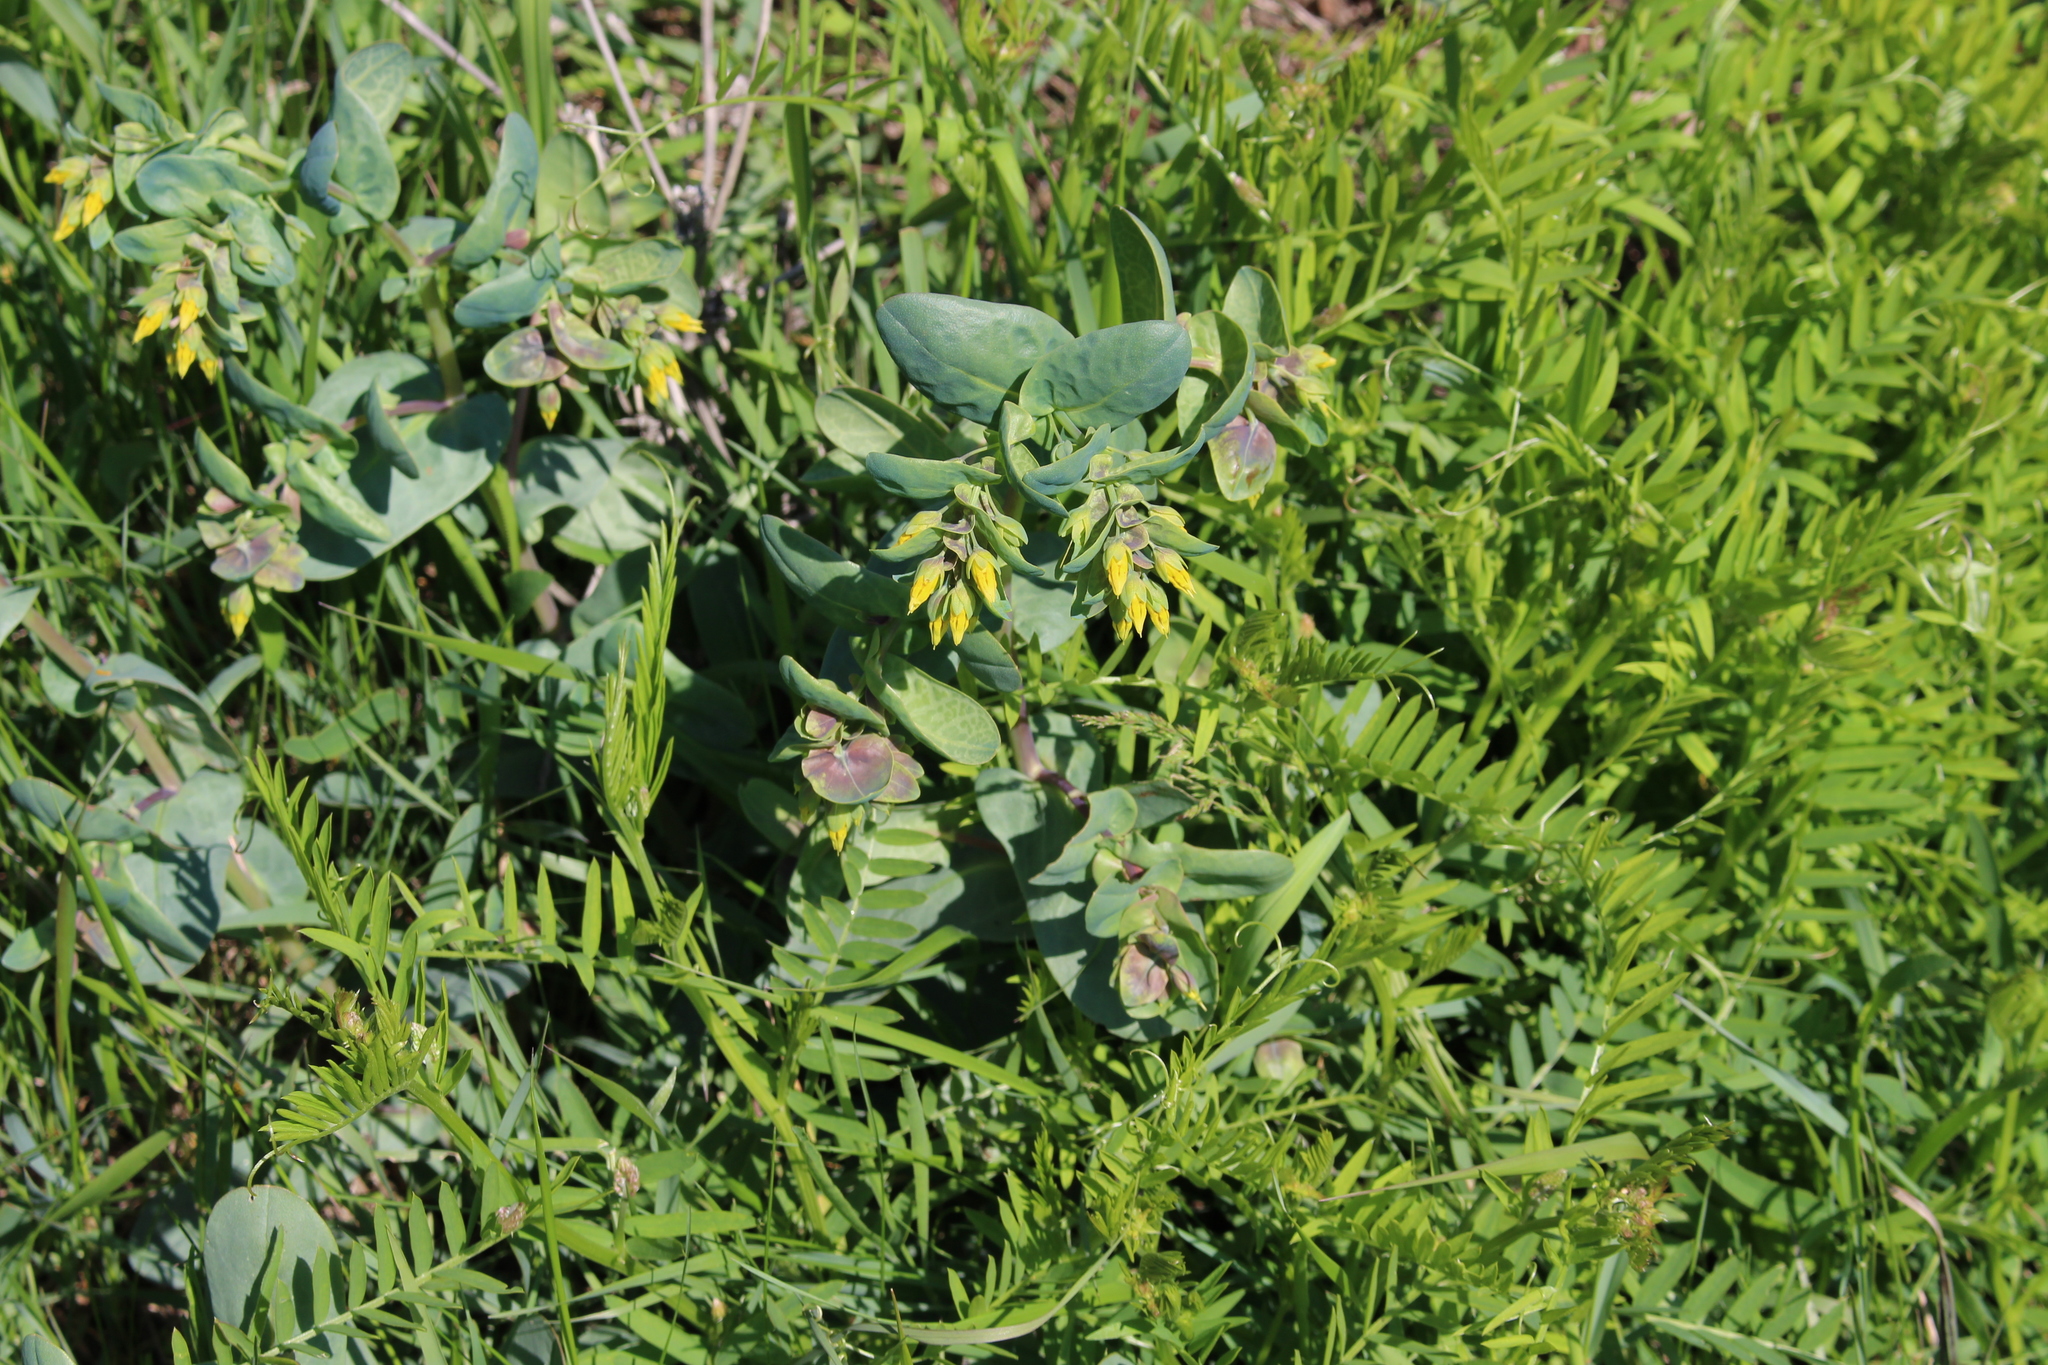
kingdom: Plantae
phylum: Tracheophyta
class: Magnoliopsida
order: Boraginales
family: Boraginaceae
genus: Cerinthe
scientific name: Cerinthe minor
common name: Lesser honeywort
